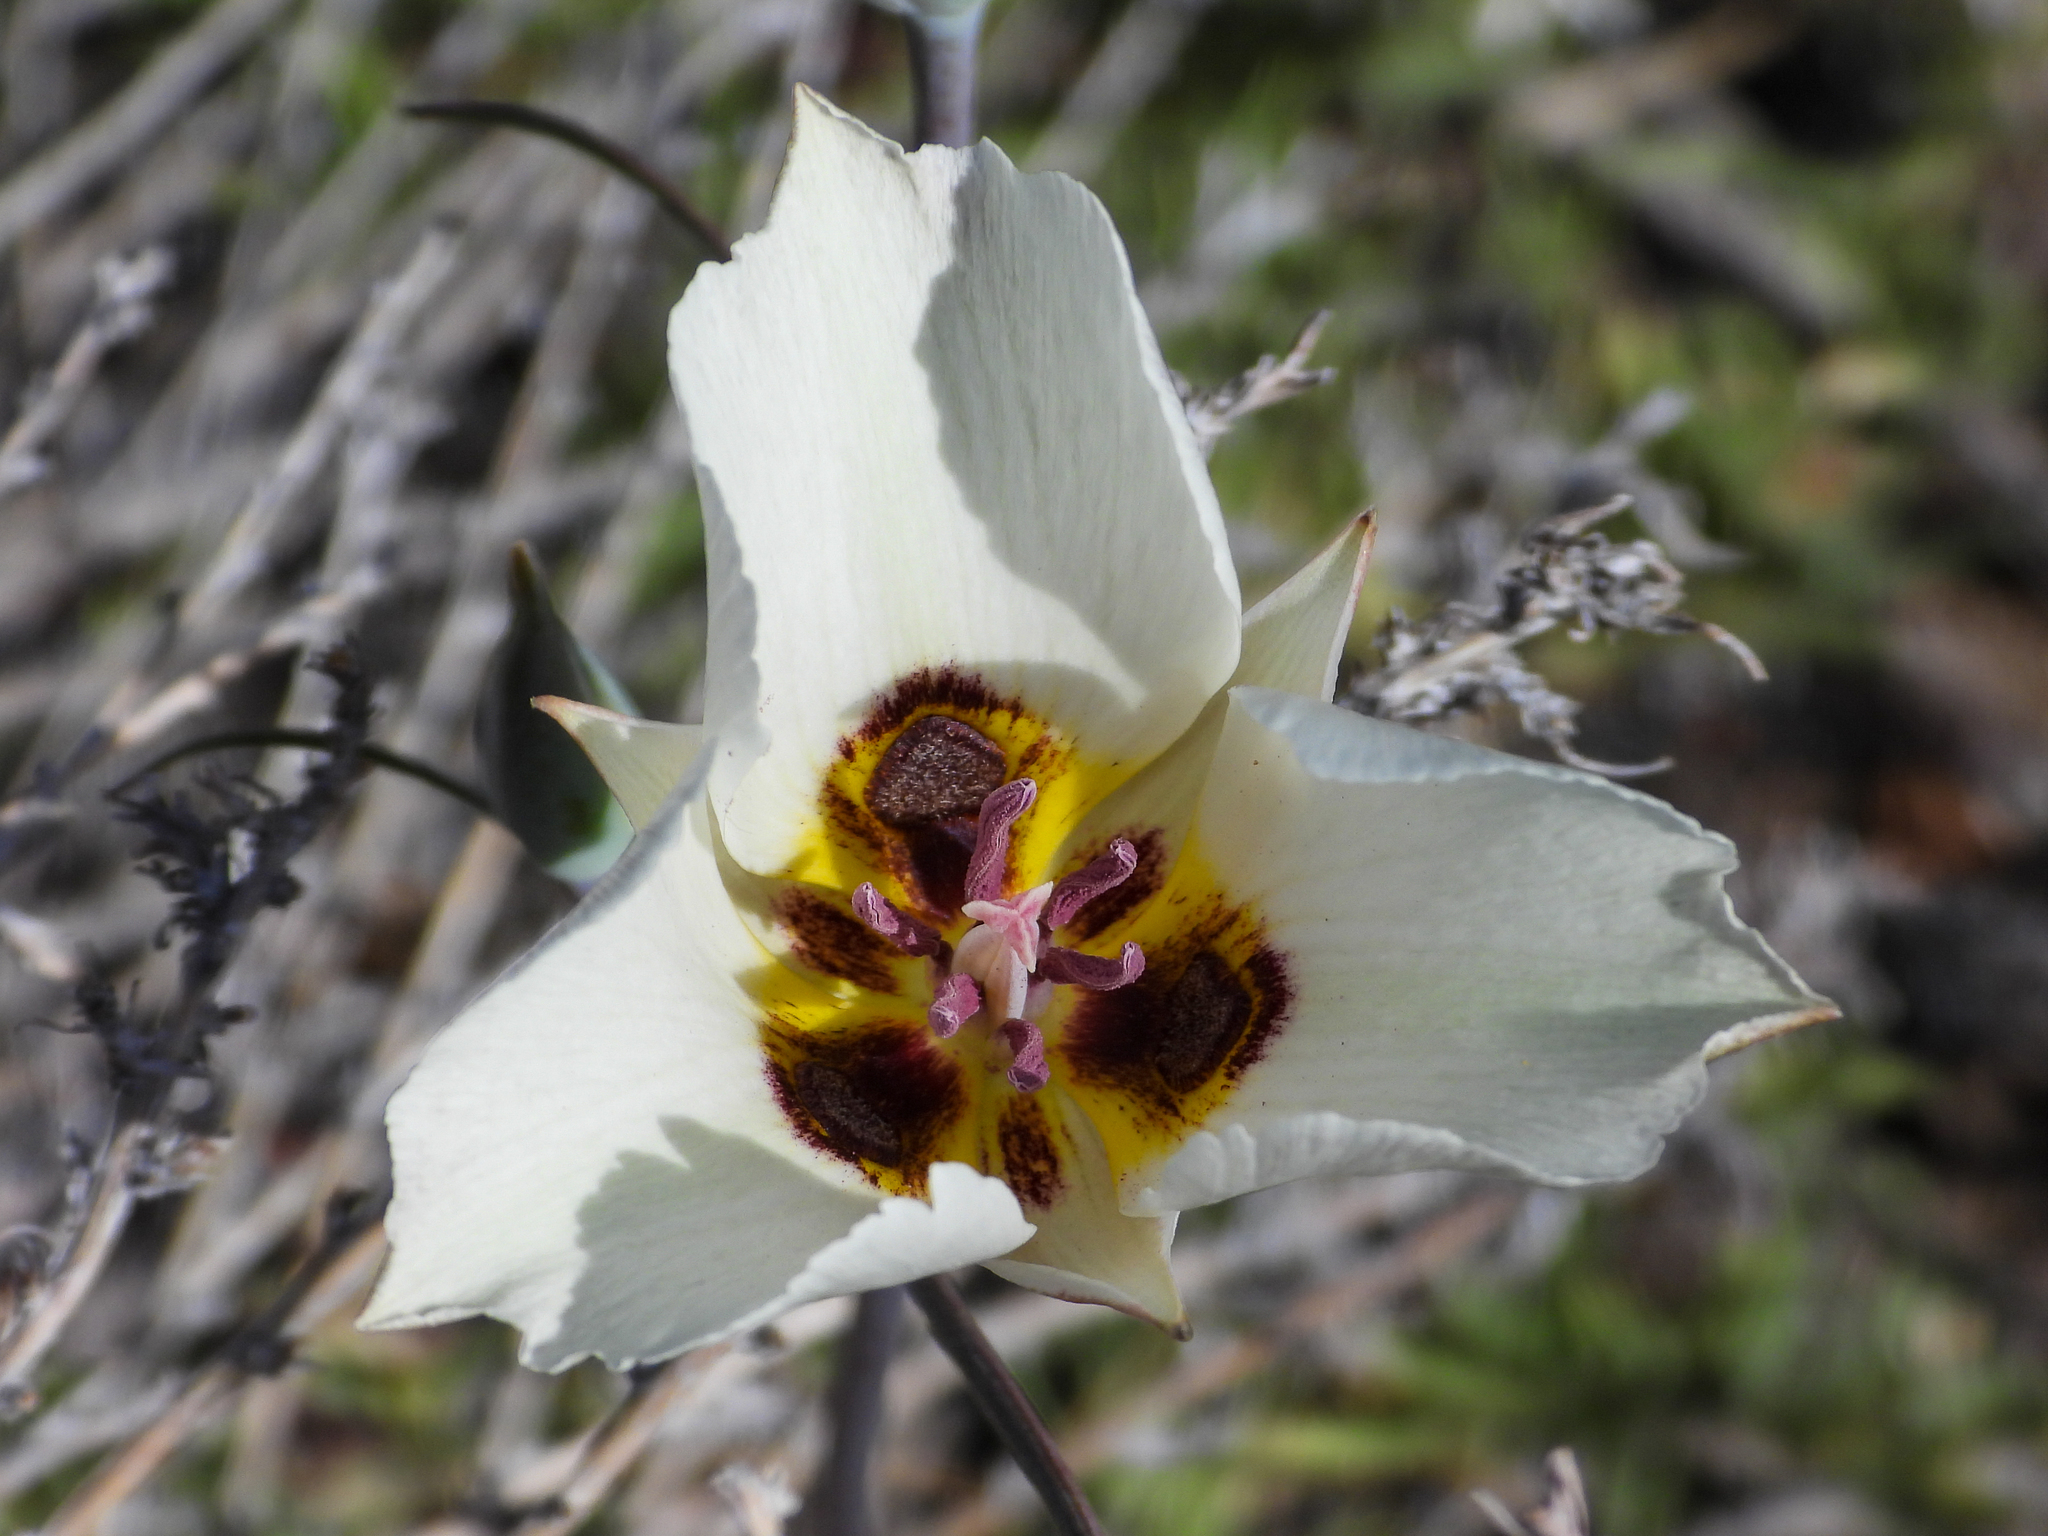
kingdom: Plantae
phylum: Tracheophyta
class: Liliopsida
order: Liliales
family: Liliaceae
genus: Calochortus
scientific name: Calochortus bruneaunis
